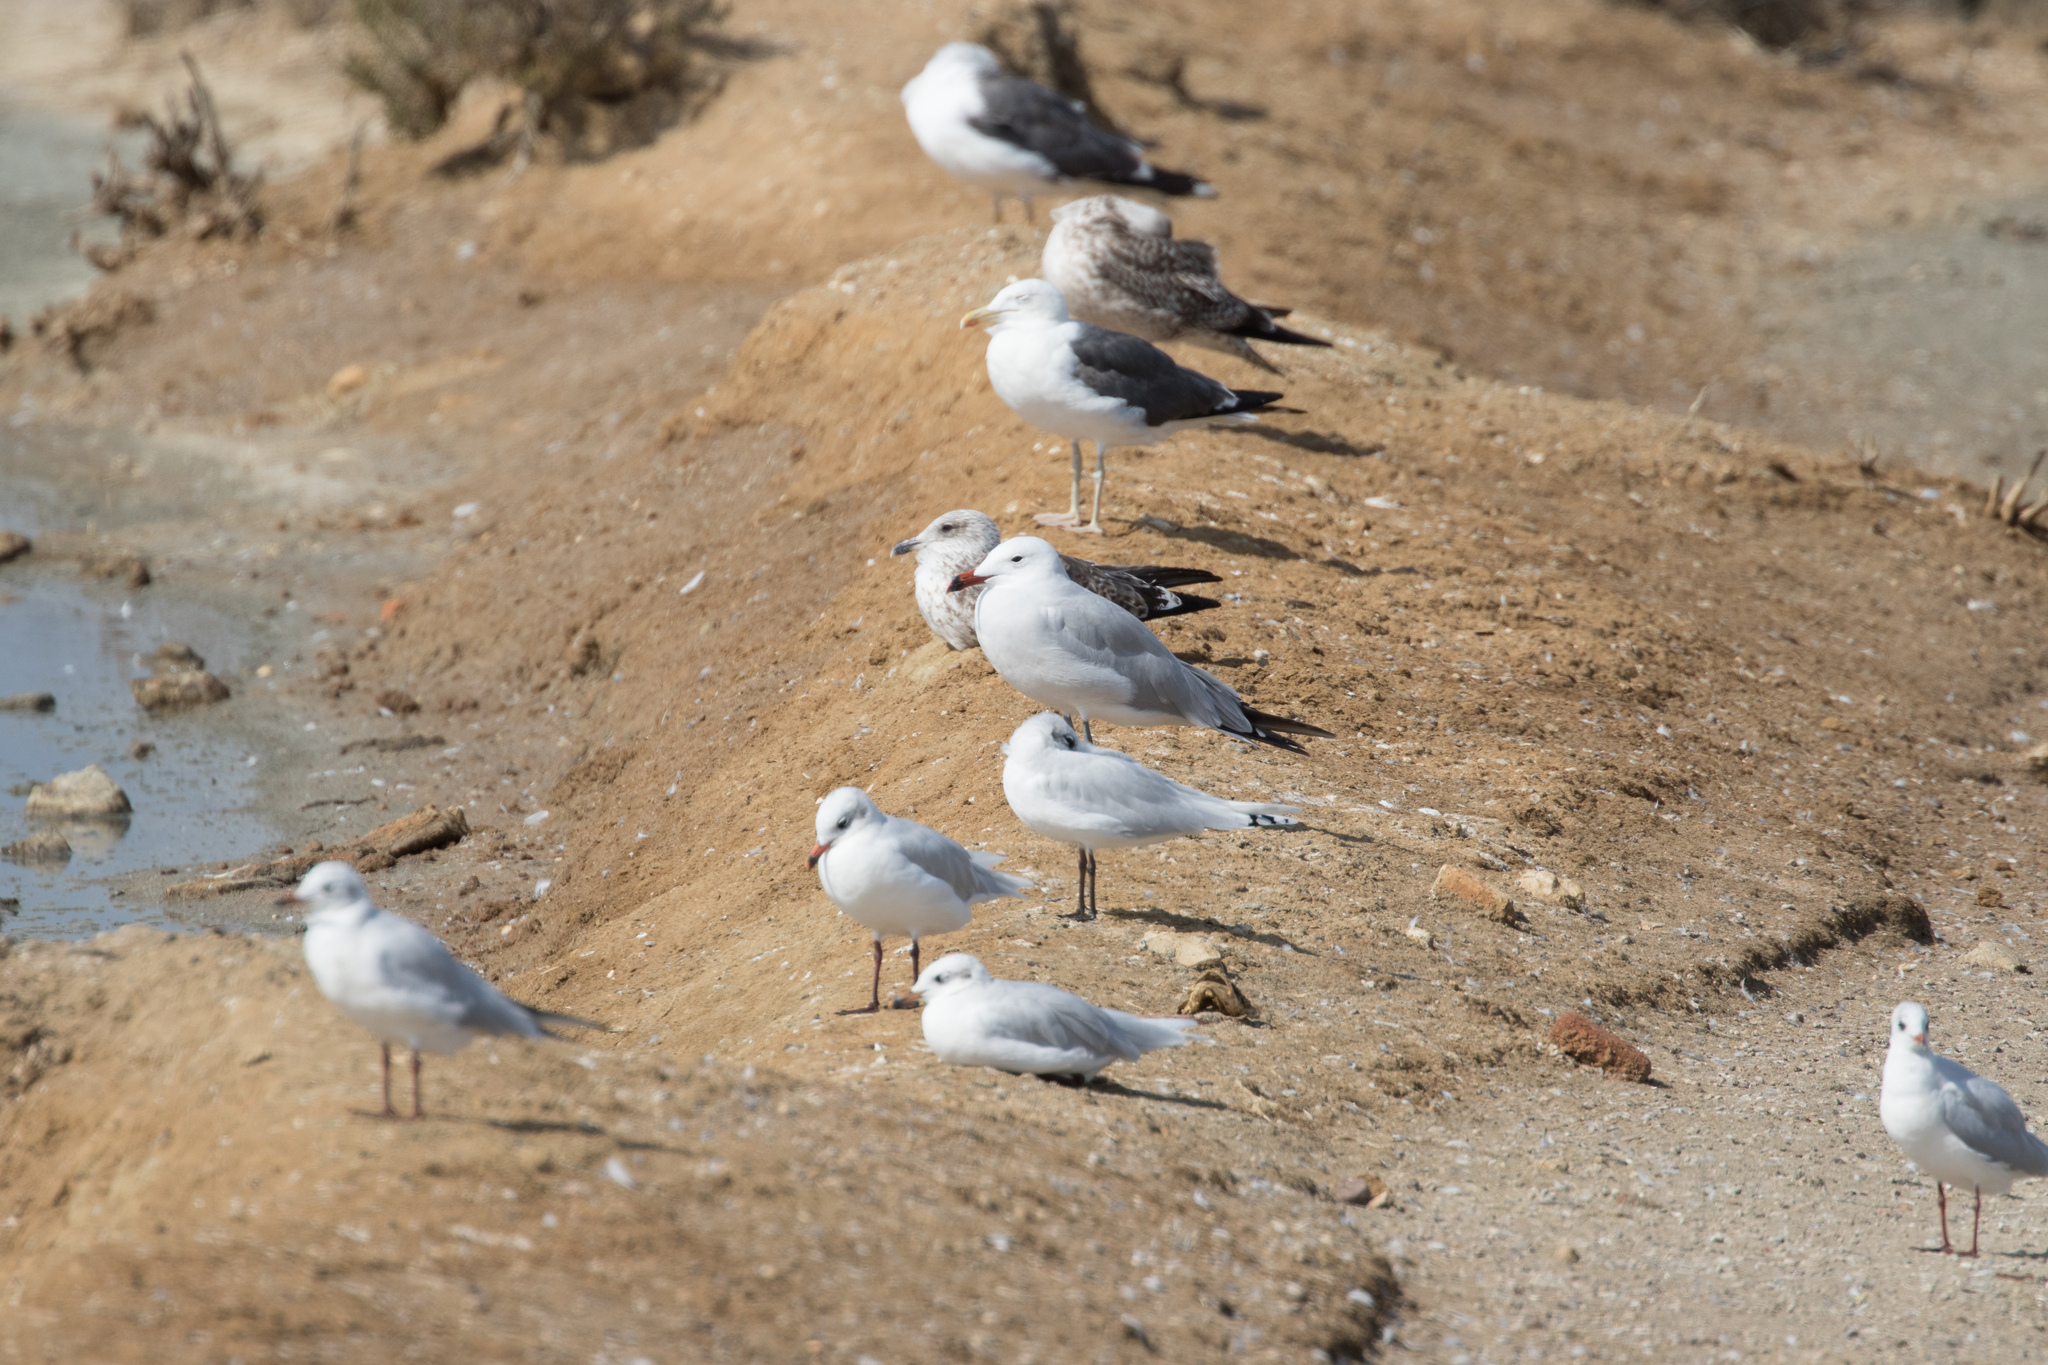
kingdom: Animalia
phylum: Chordata
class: Aves
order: Charadriiformes
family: Laridae
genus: Ichthyaetus
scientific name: Ichthyaetus audouinii
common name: Audouin's gull
